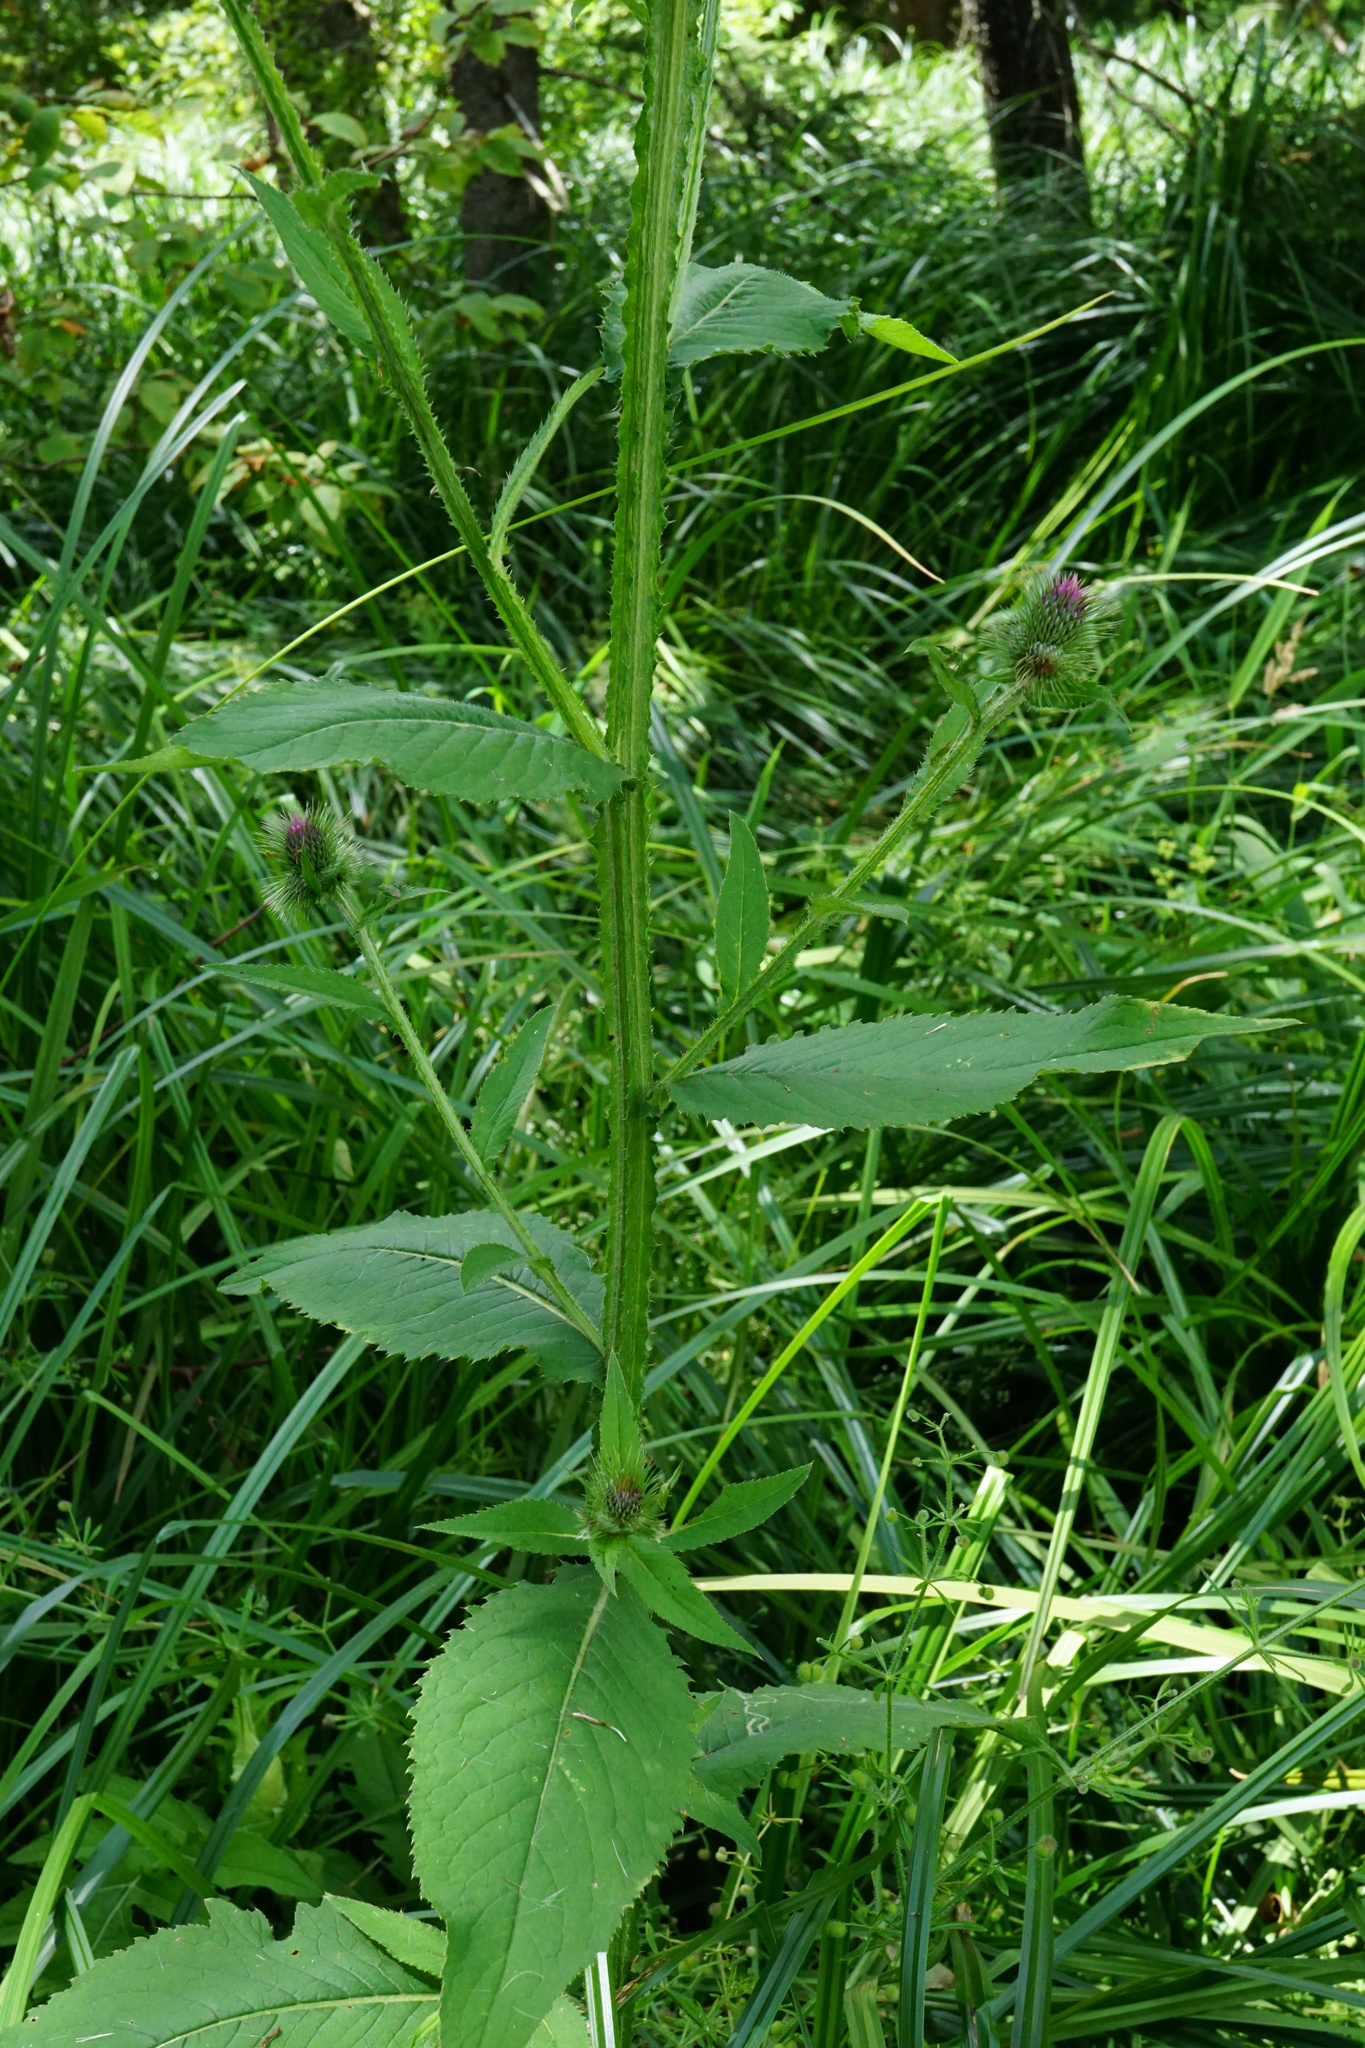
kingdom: Plantae
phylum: Tracheophyta
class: Magnoliopsida
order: Asterales
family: Asteraceae
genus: Carduus
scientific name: Carduus personata
